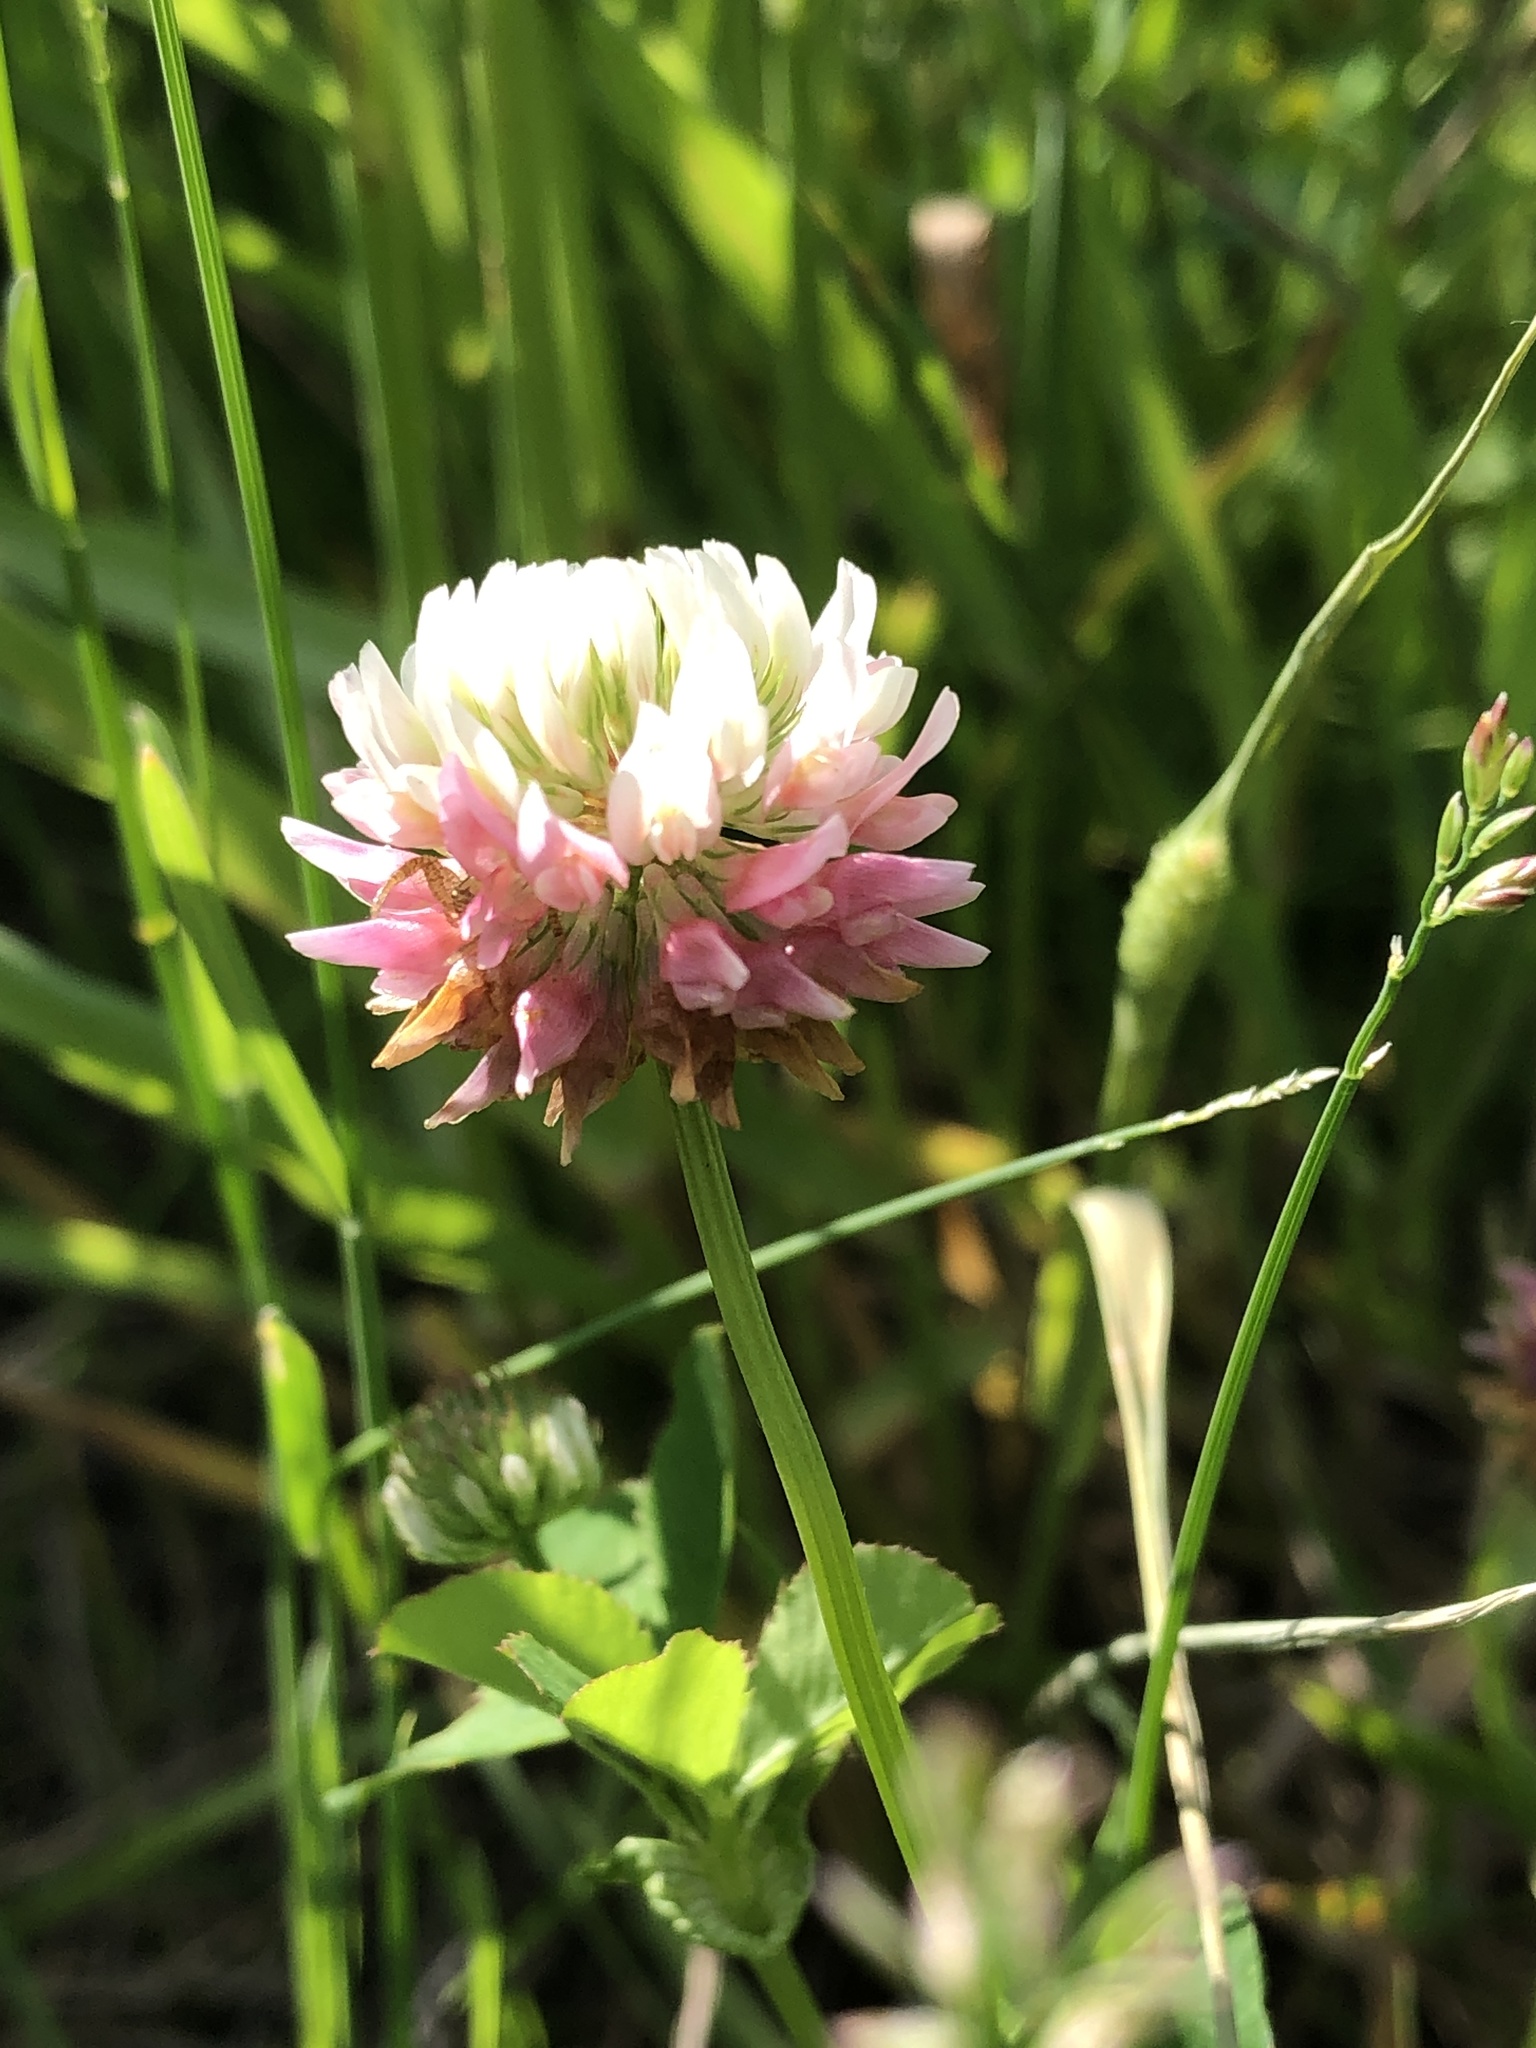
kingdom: Plantae
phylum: Tracheophyta
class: Magnoliopsida
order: Fabales
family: Fabaceae
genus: Trifolium
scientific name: Trifolium hybridum
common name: Alsike clover
